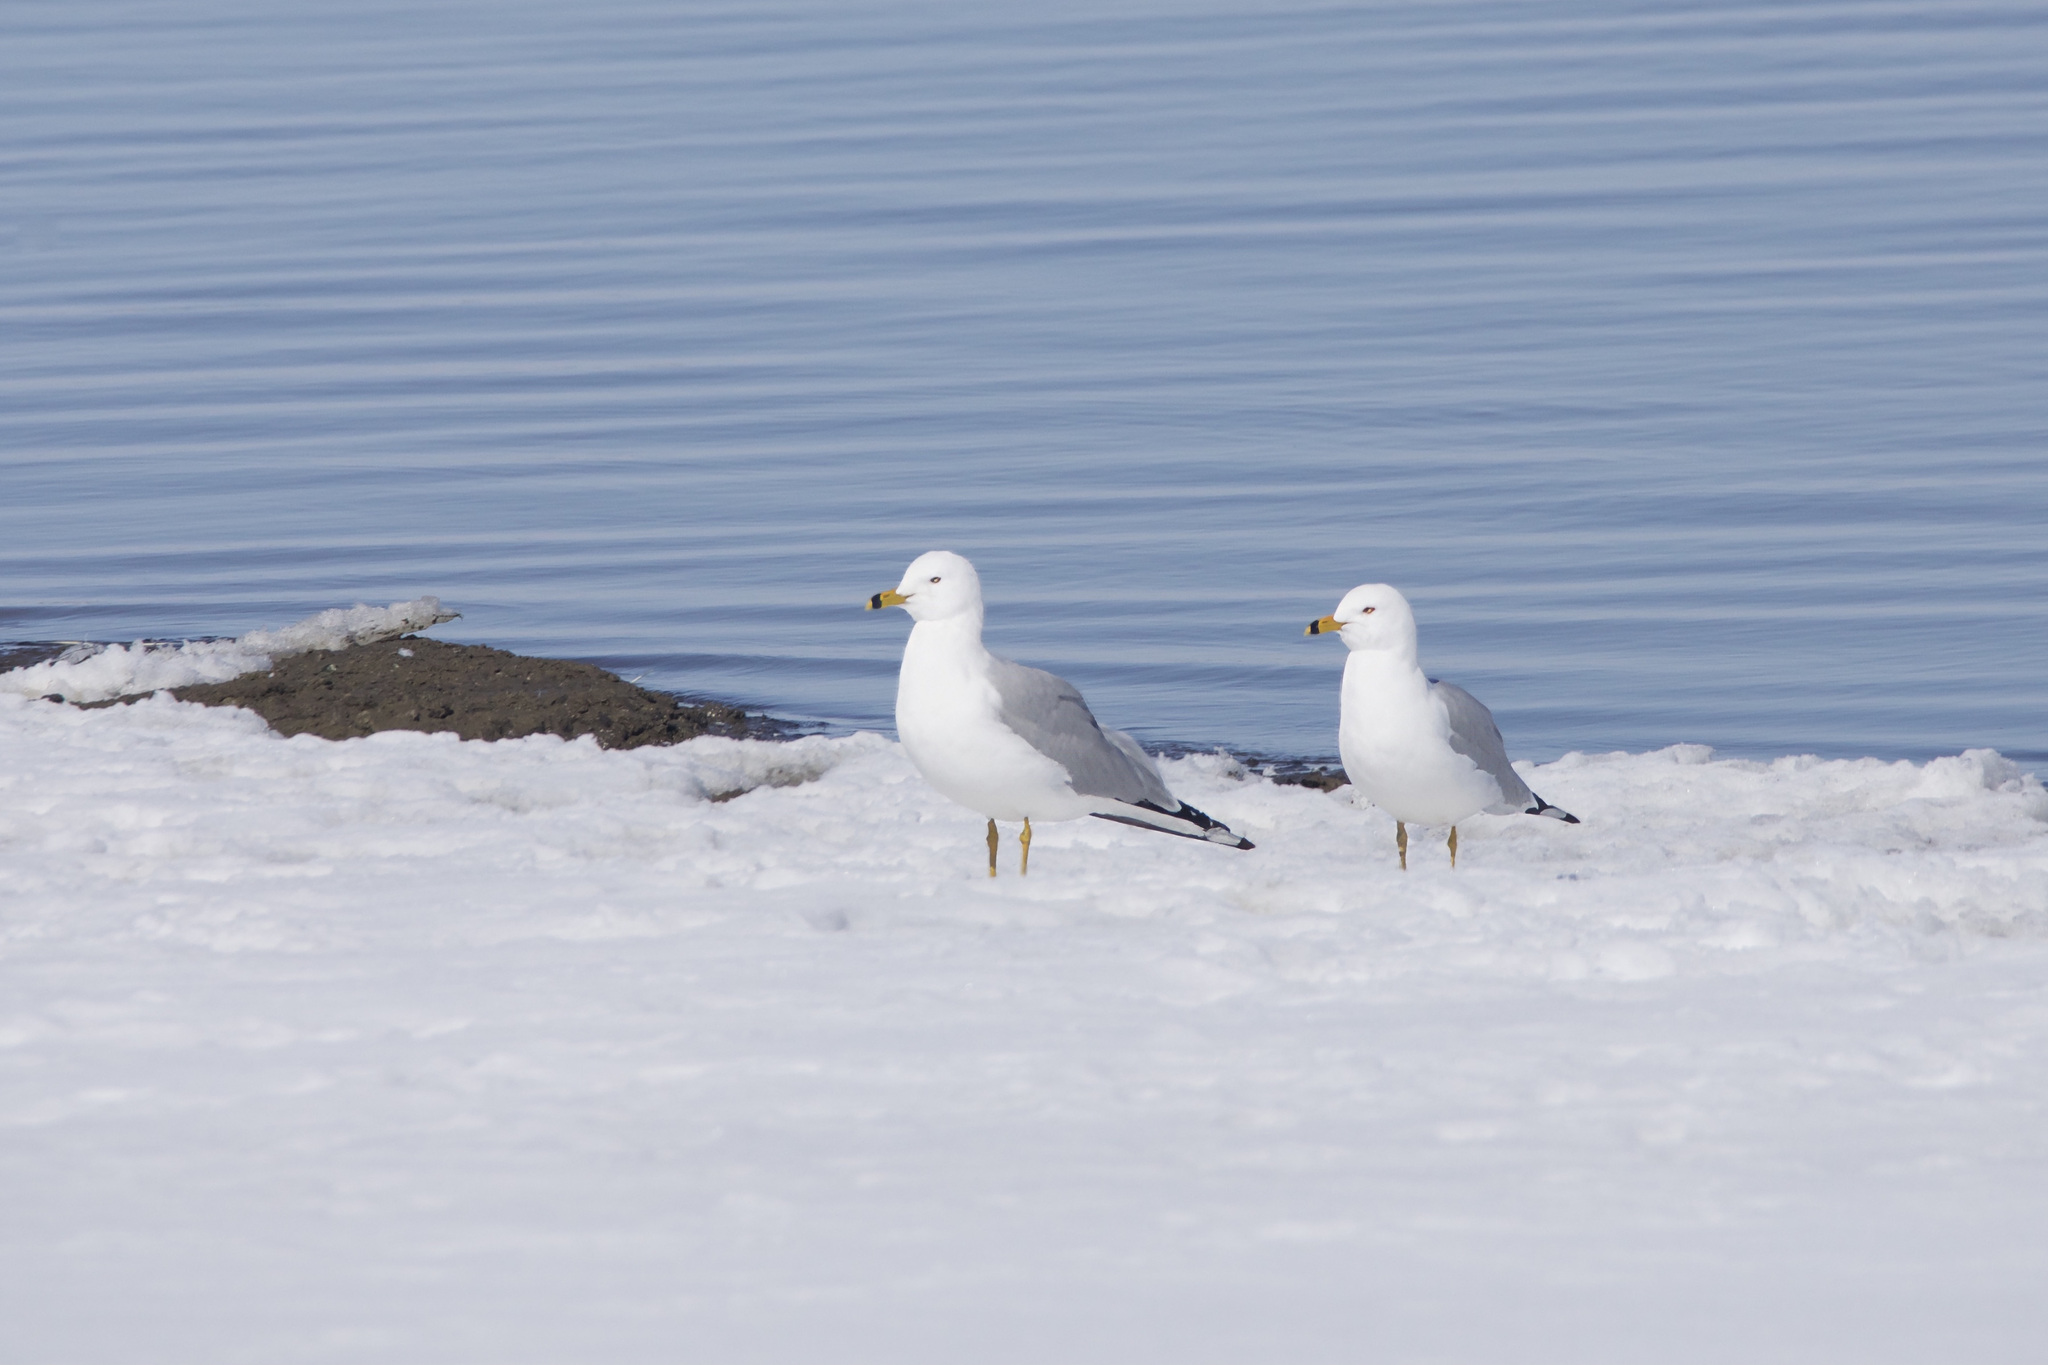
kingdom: Animalia
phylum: Chordata
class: Aves
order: Charadriiformes
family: Laridae
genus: Larus
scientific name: Larus delawarensis
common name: Ring-billed gull
